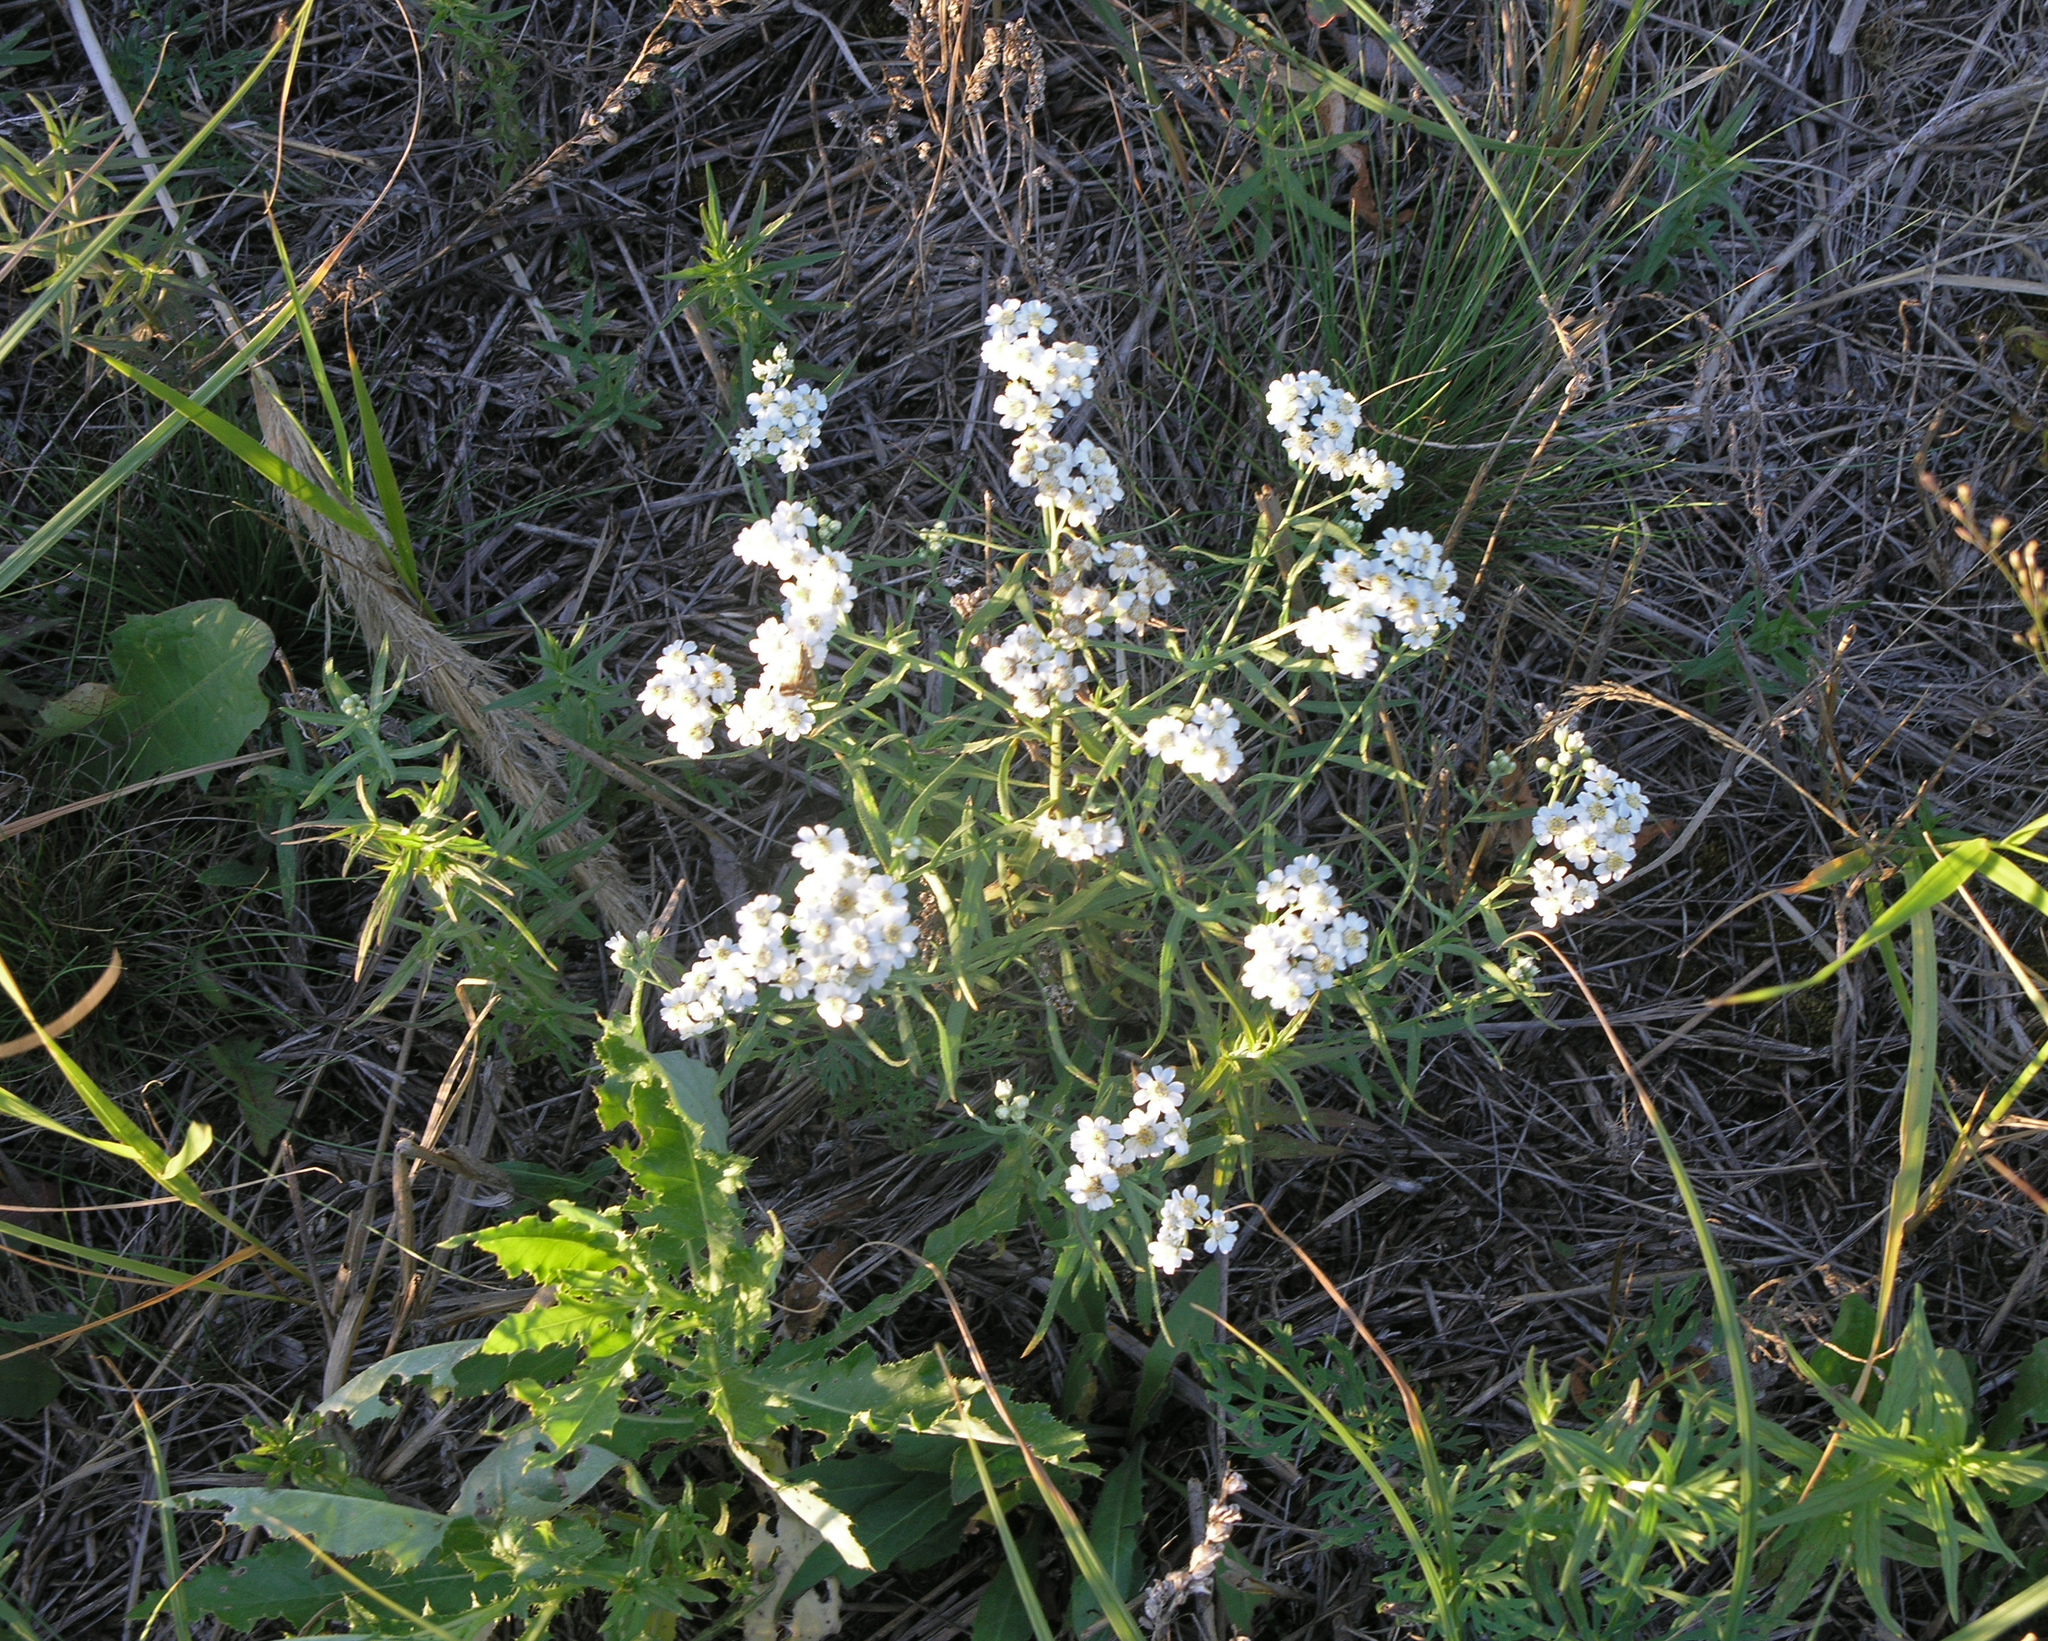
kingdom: Plantae
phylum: Tracheophyta
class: Magnoliopsida
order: Asterales
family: Asteraceae
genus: Achillea
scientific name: Achillea salicifolia
